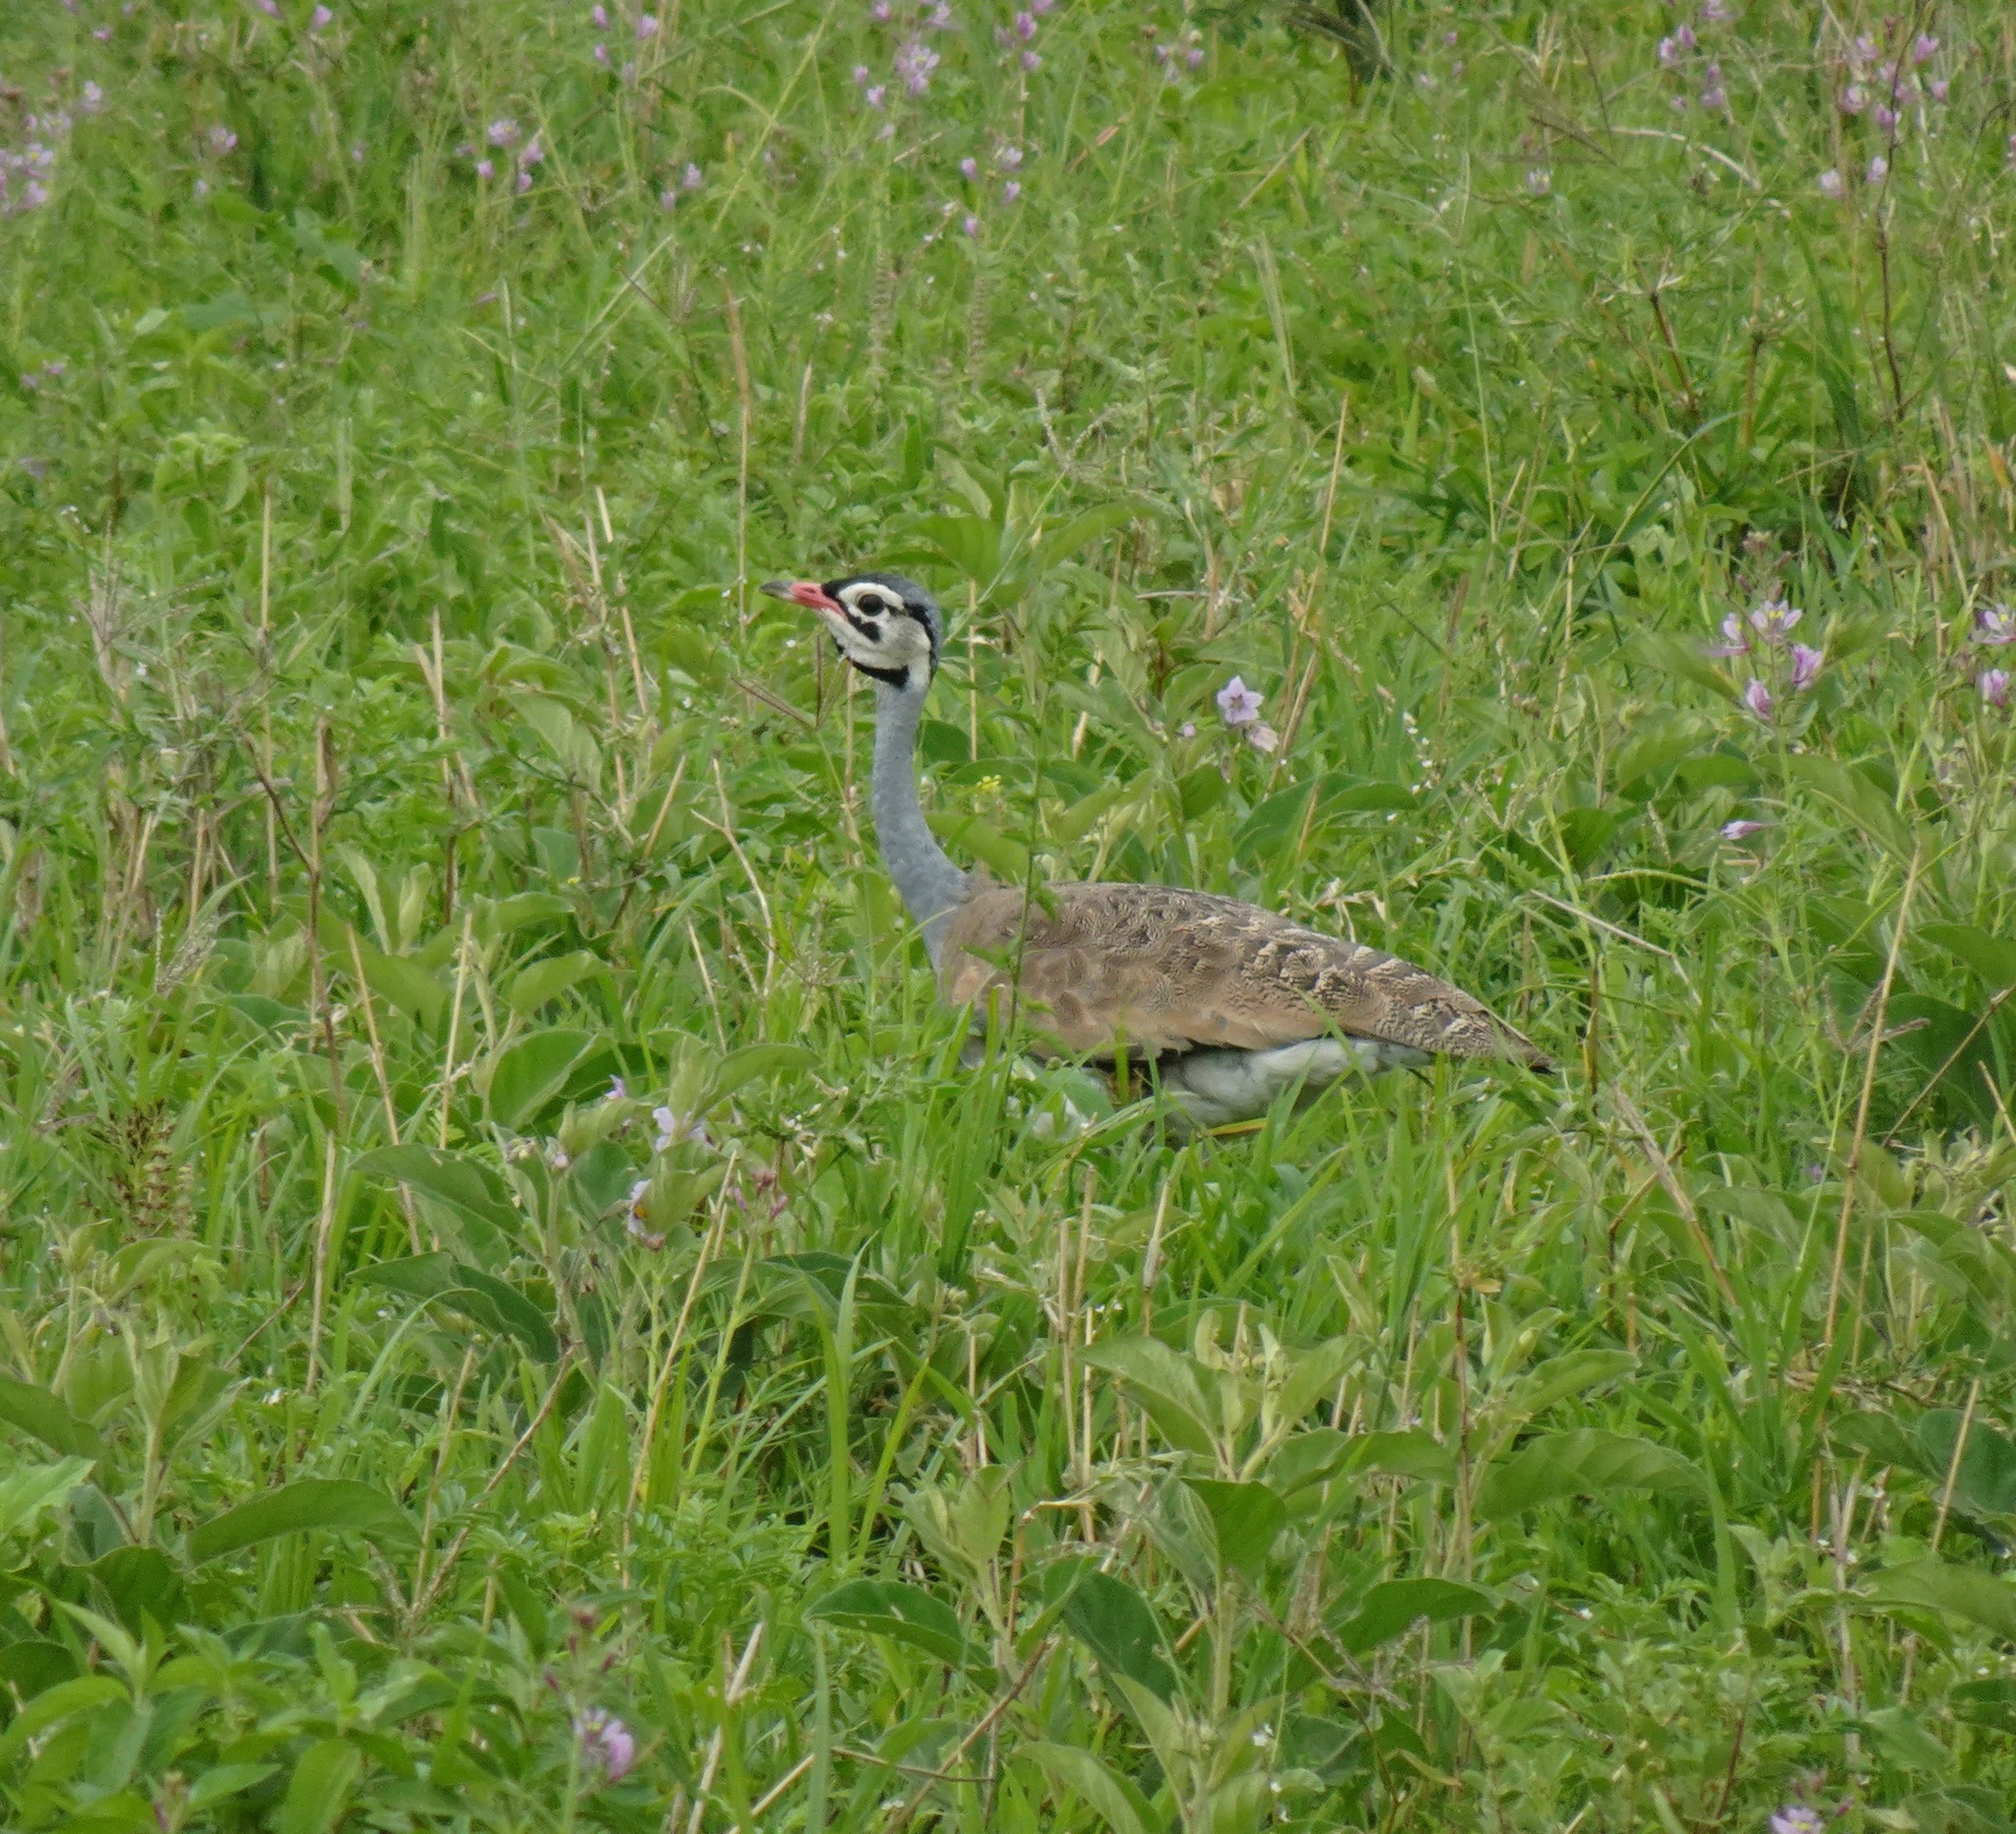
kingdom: Animalia
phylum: Chordata
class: Aves
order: Otidiformes
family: Otididae
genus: Eupodotis
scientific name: Eupodotis senegalensis
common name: White-bellied bustard
